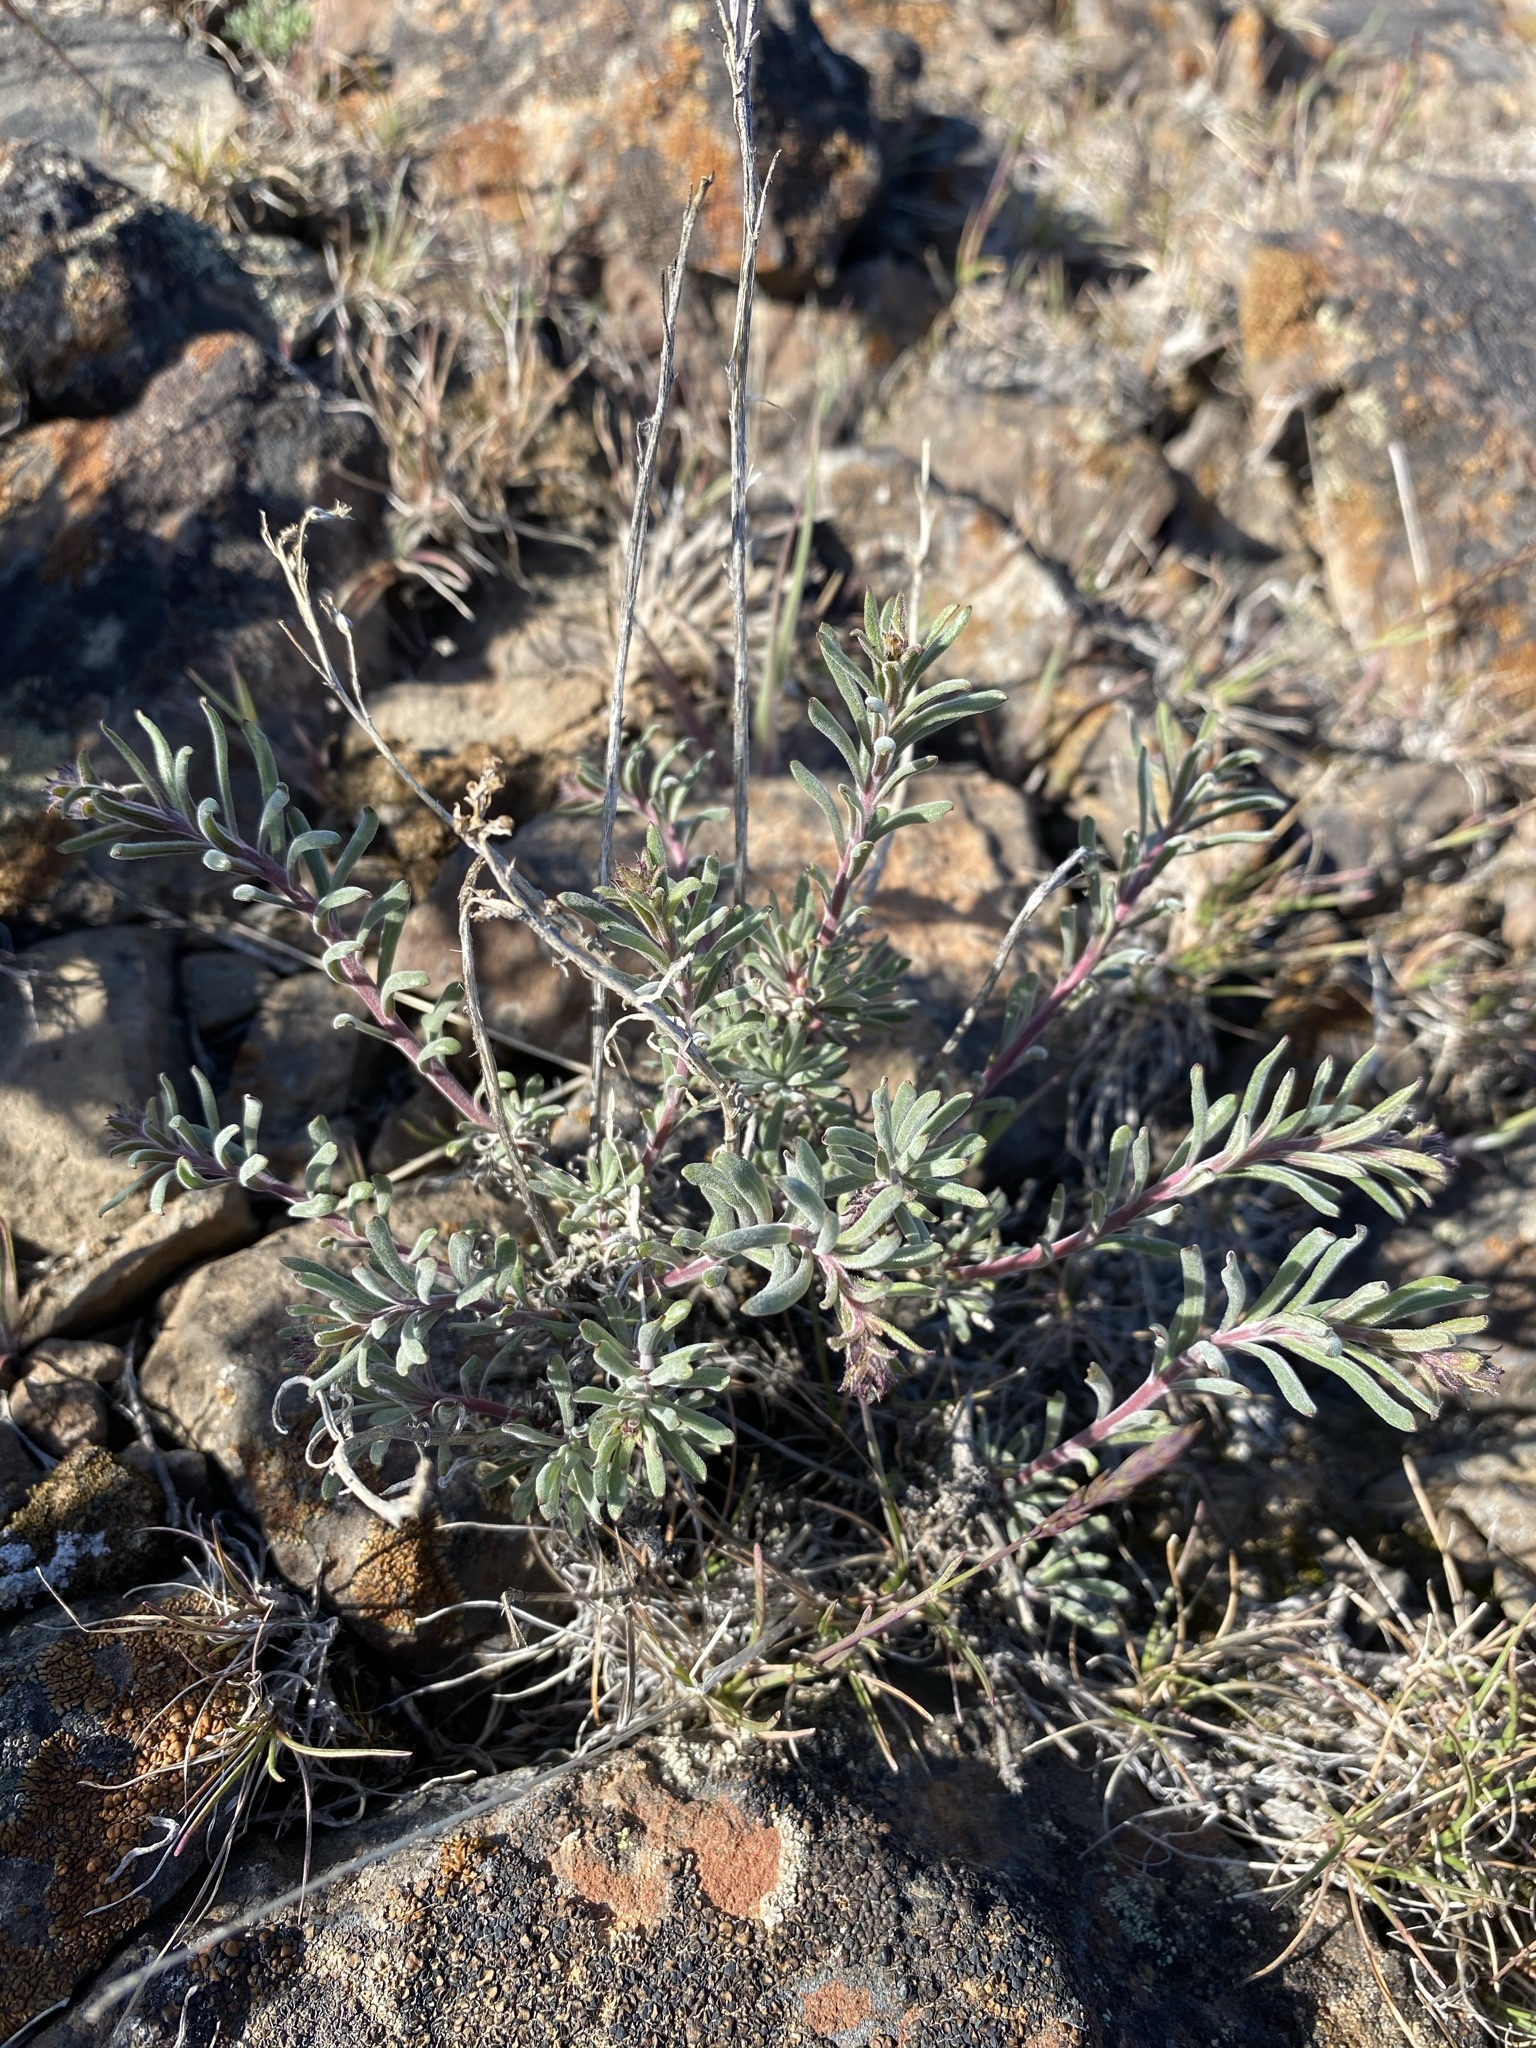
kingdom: Plantae
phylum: Tracheophyta
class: Magnoliopsida
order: Lamiales
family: Plantaginaceae
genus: Penstemon
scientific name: Penstemon gairdneri
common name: Gairdner's penstemon
